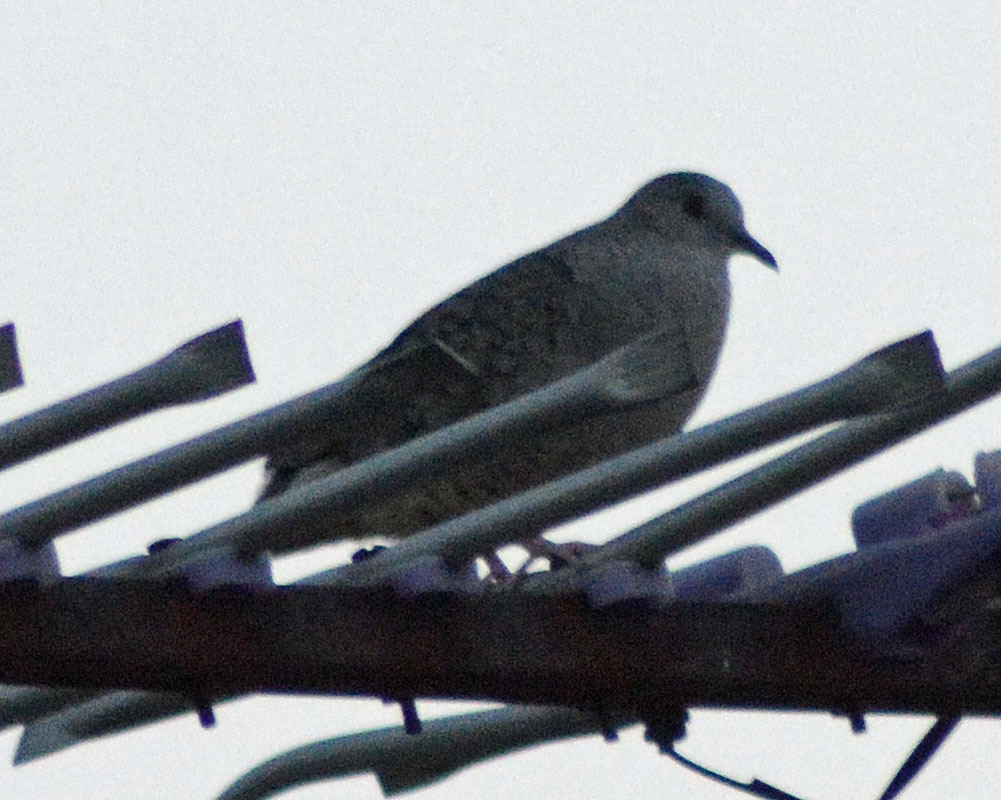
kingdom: Animalia
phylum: Chordata
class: Aves
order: Columbiformes
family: Columbidae
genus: Columbina
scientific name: Columbina inca
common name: Inca dove
